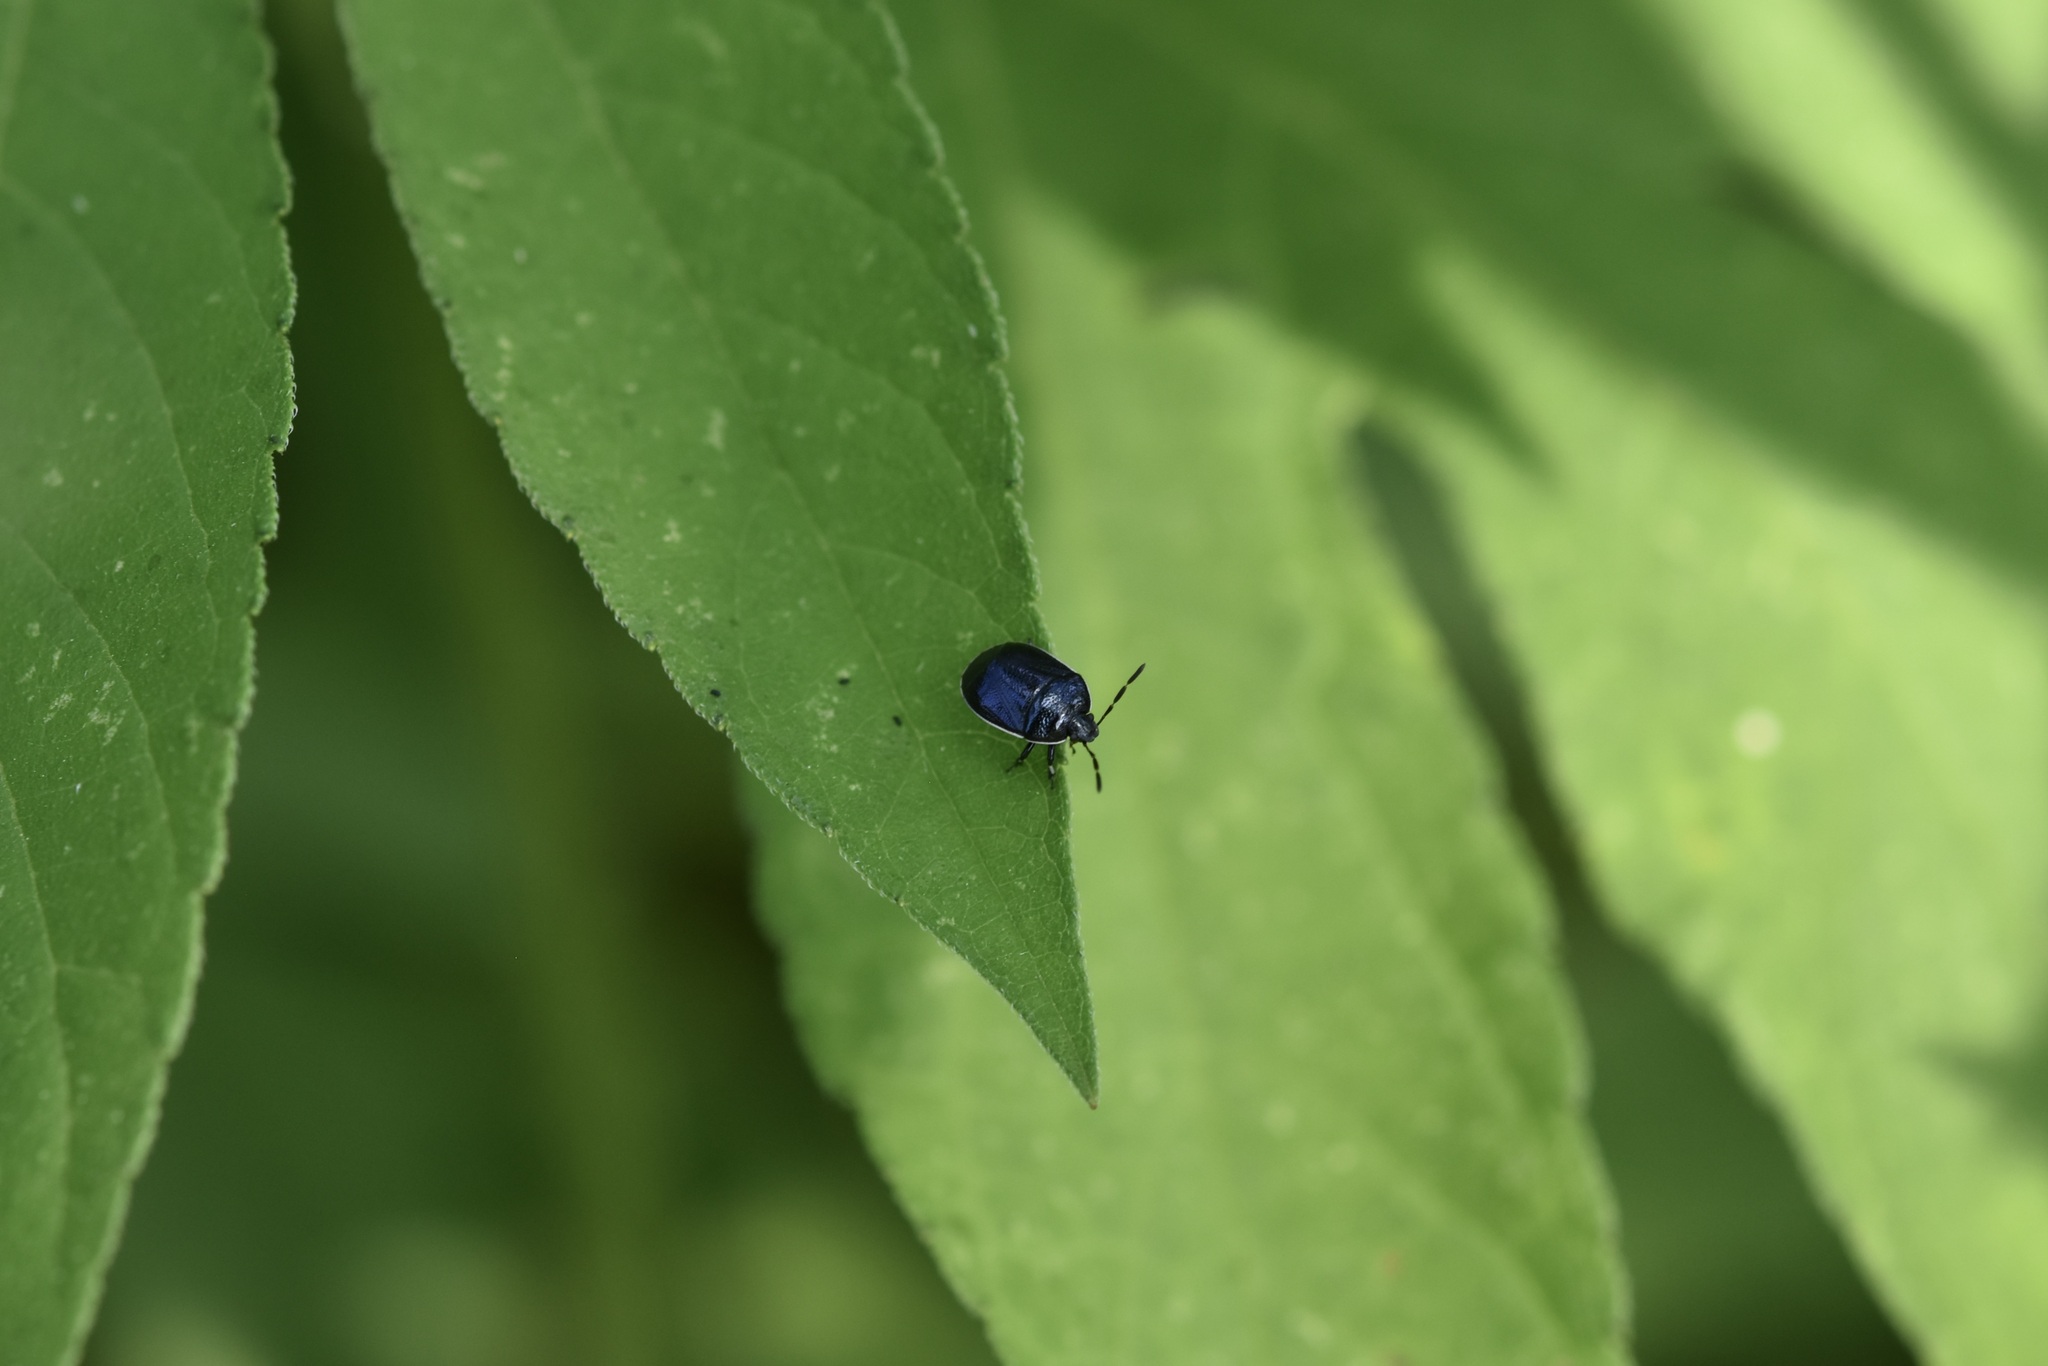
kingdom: Animalia
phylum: Arthropoda
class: Insecta
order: Hemiptera
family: Cydnidae
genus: Sehirus
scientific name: Sehirus cinctus
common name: White-margined burrower bug
